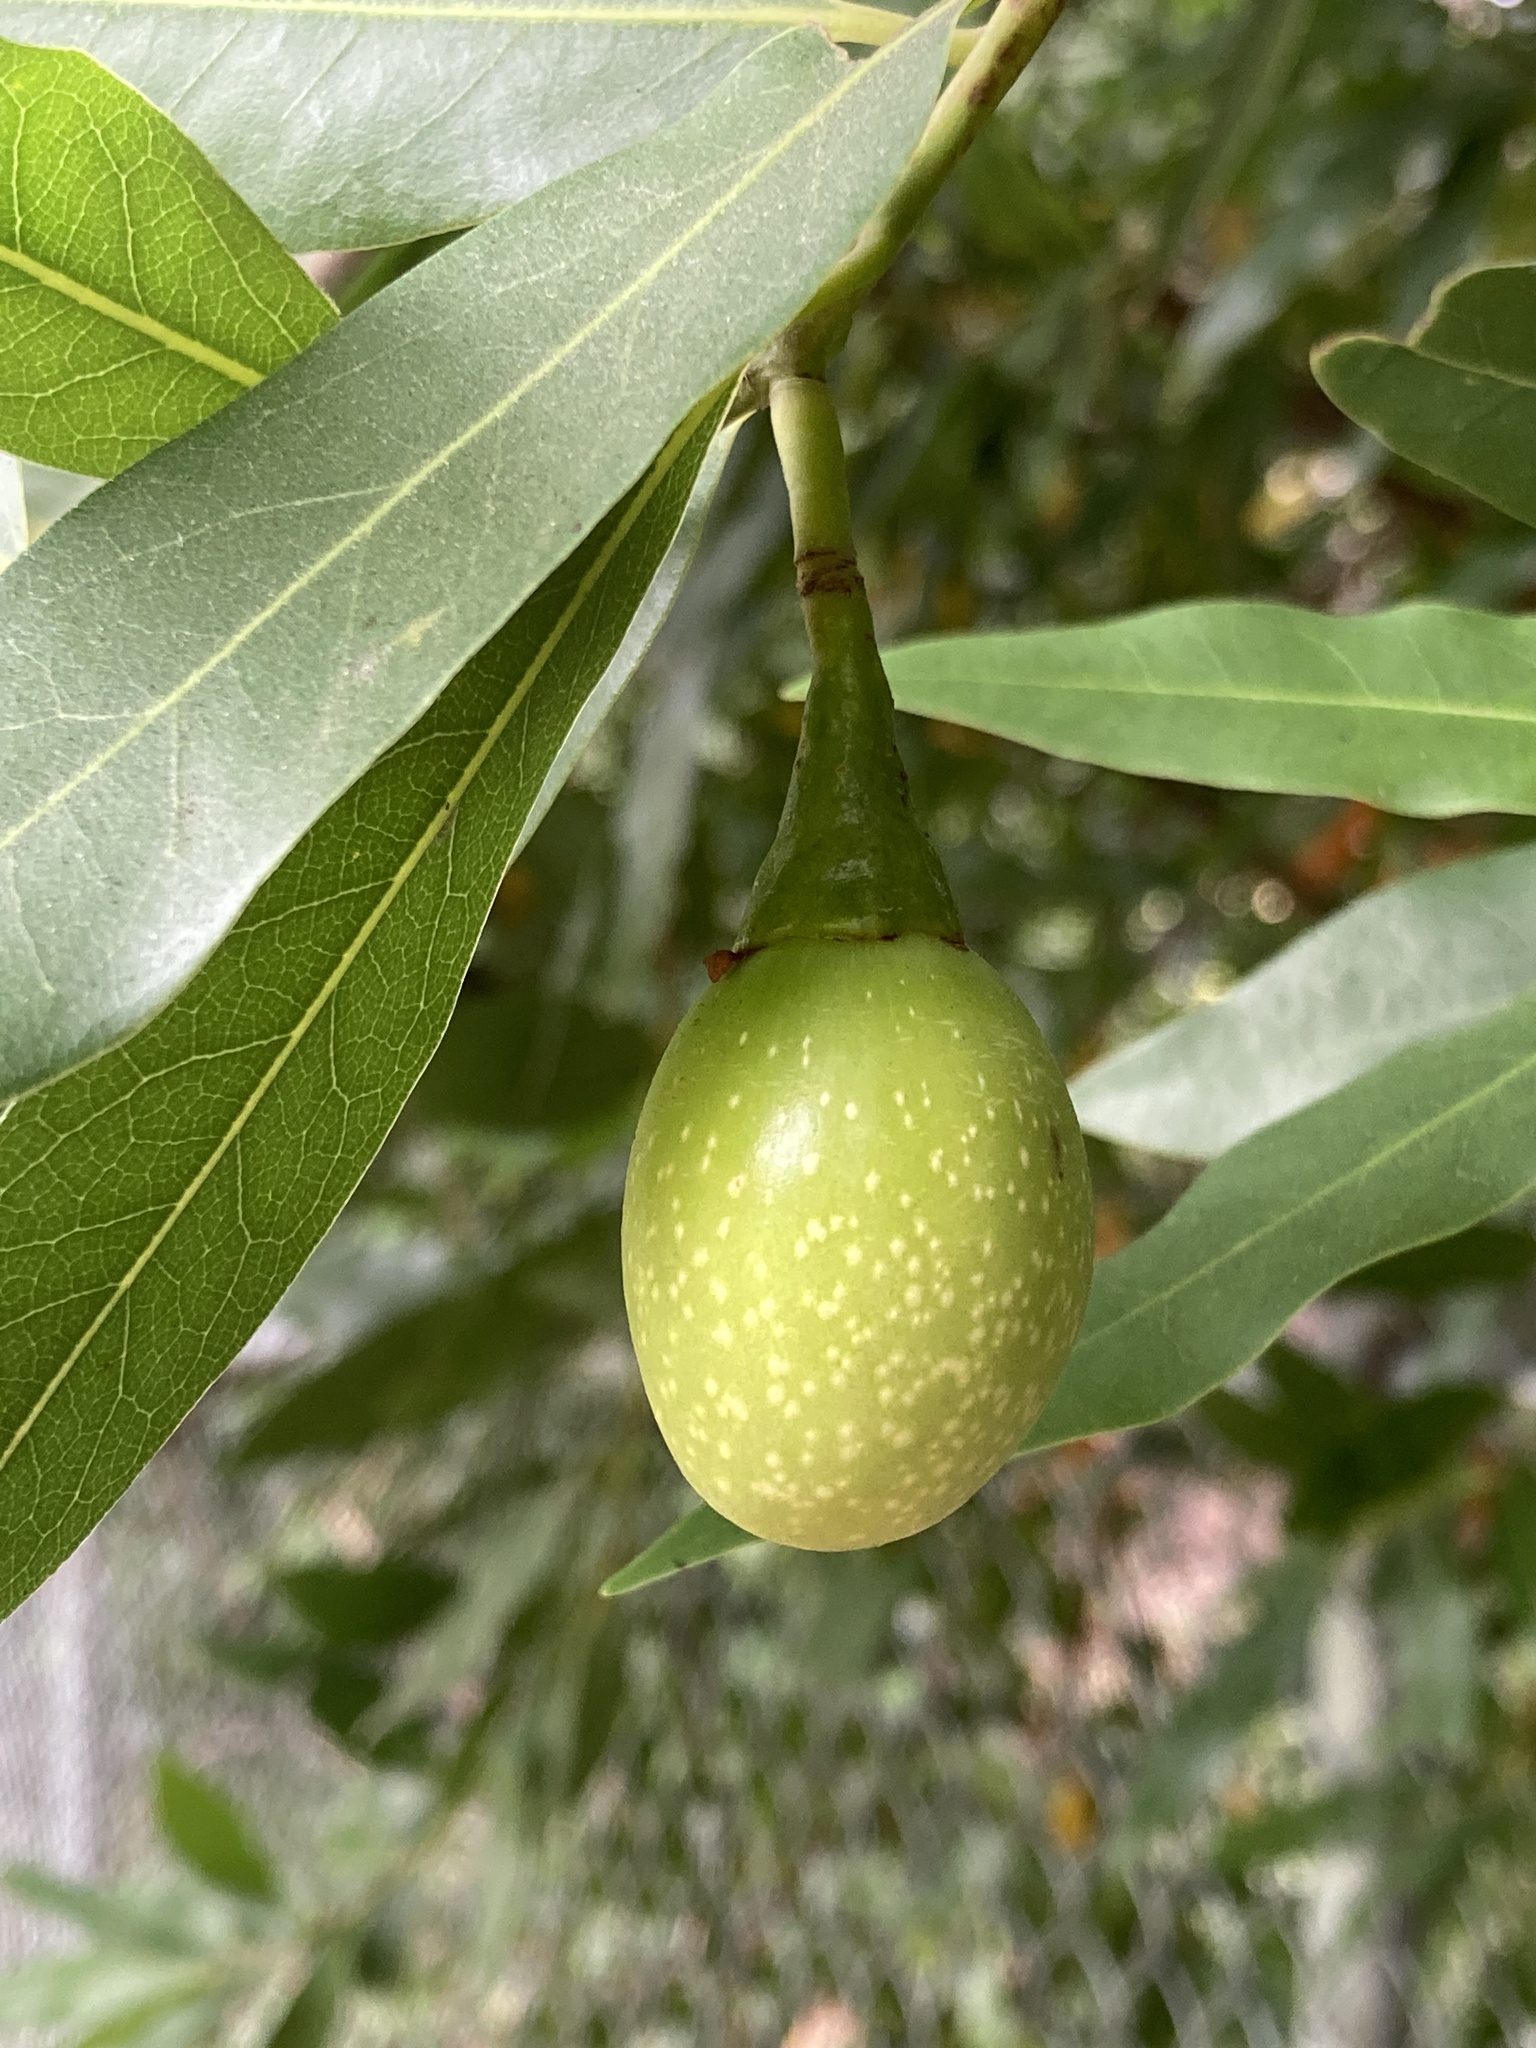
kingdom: Plantae
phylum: Tracheophyta
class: Magnoliopsida
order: Laurales
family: Lauraceae
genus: Umbellularia
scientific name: Umbellularia californica
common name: California bay
